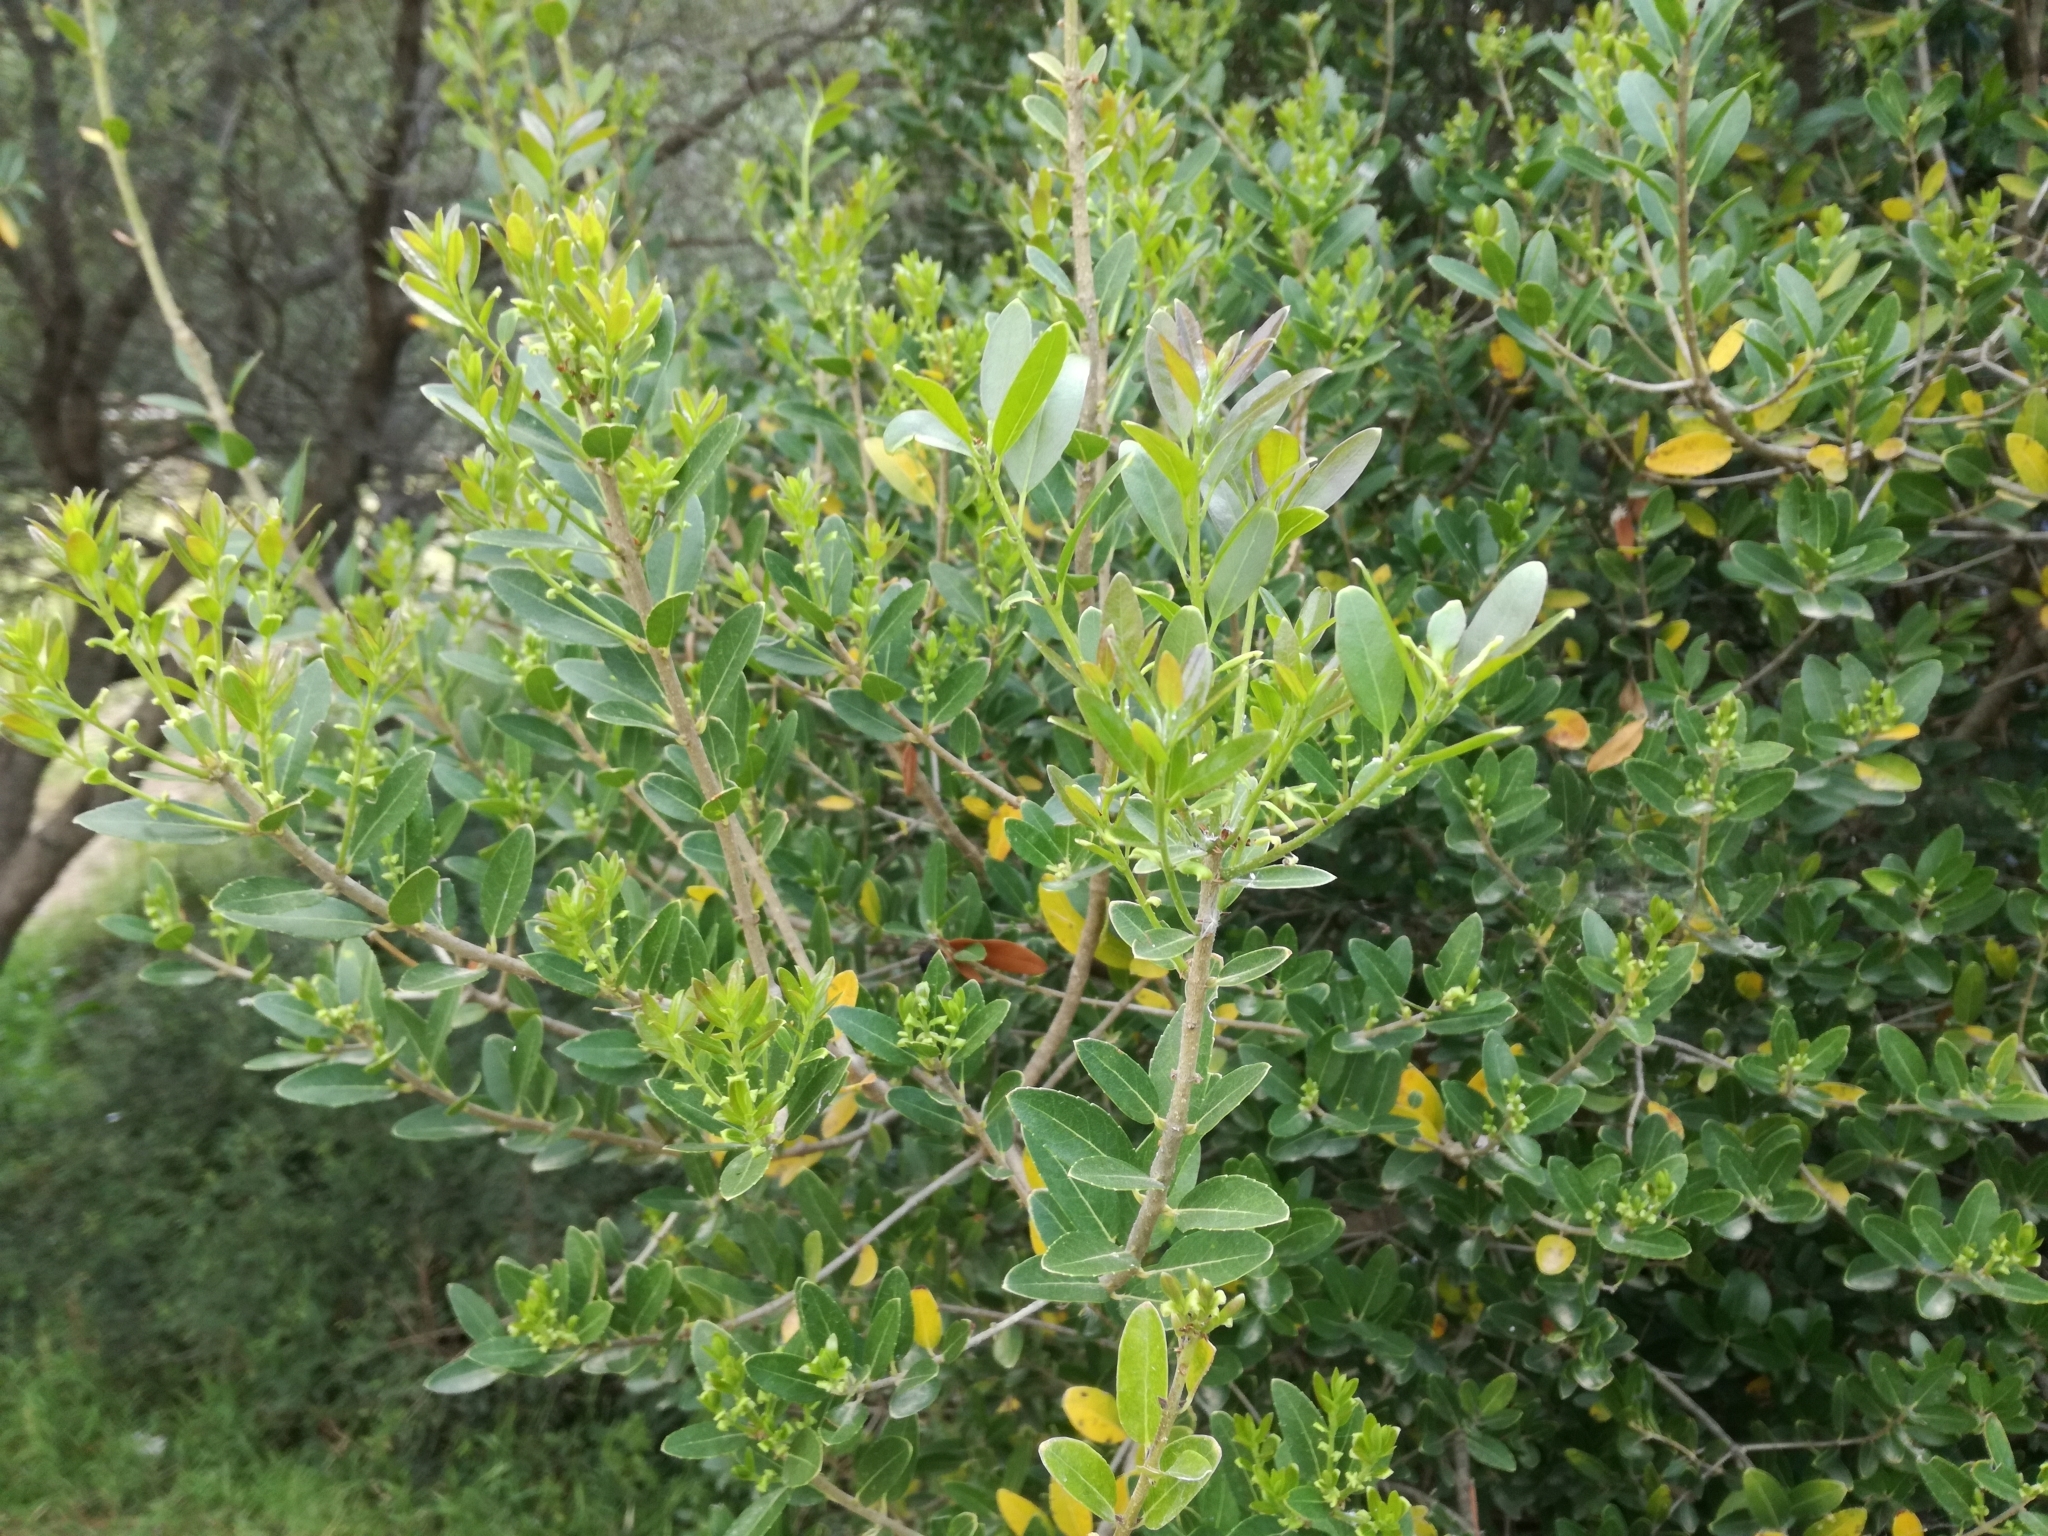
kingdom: Plantae
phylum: Tracheophyta
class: Magnoliopsida
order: Lamiales
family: Oleaceae
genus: Phillyrea
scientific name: Phillyrea latifolia
